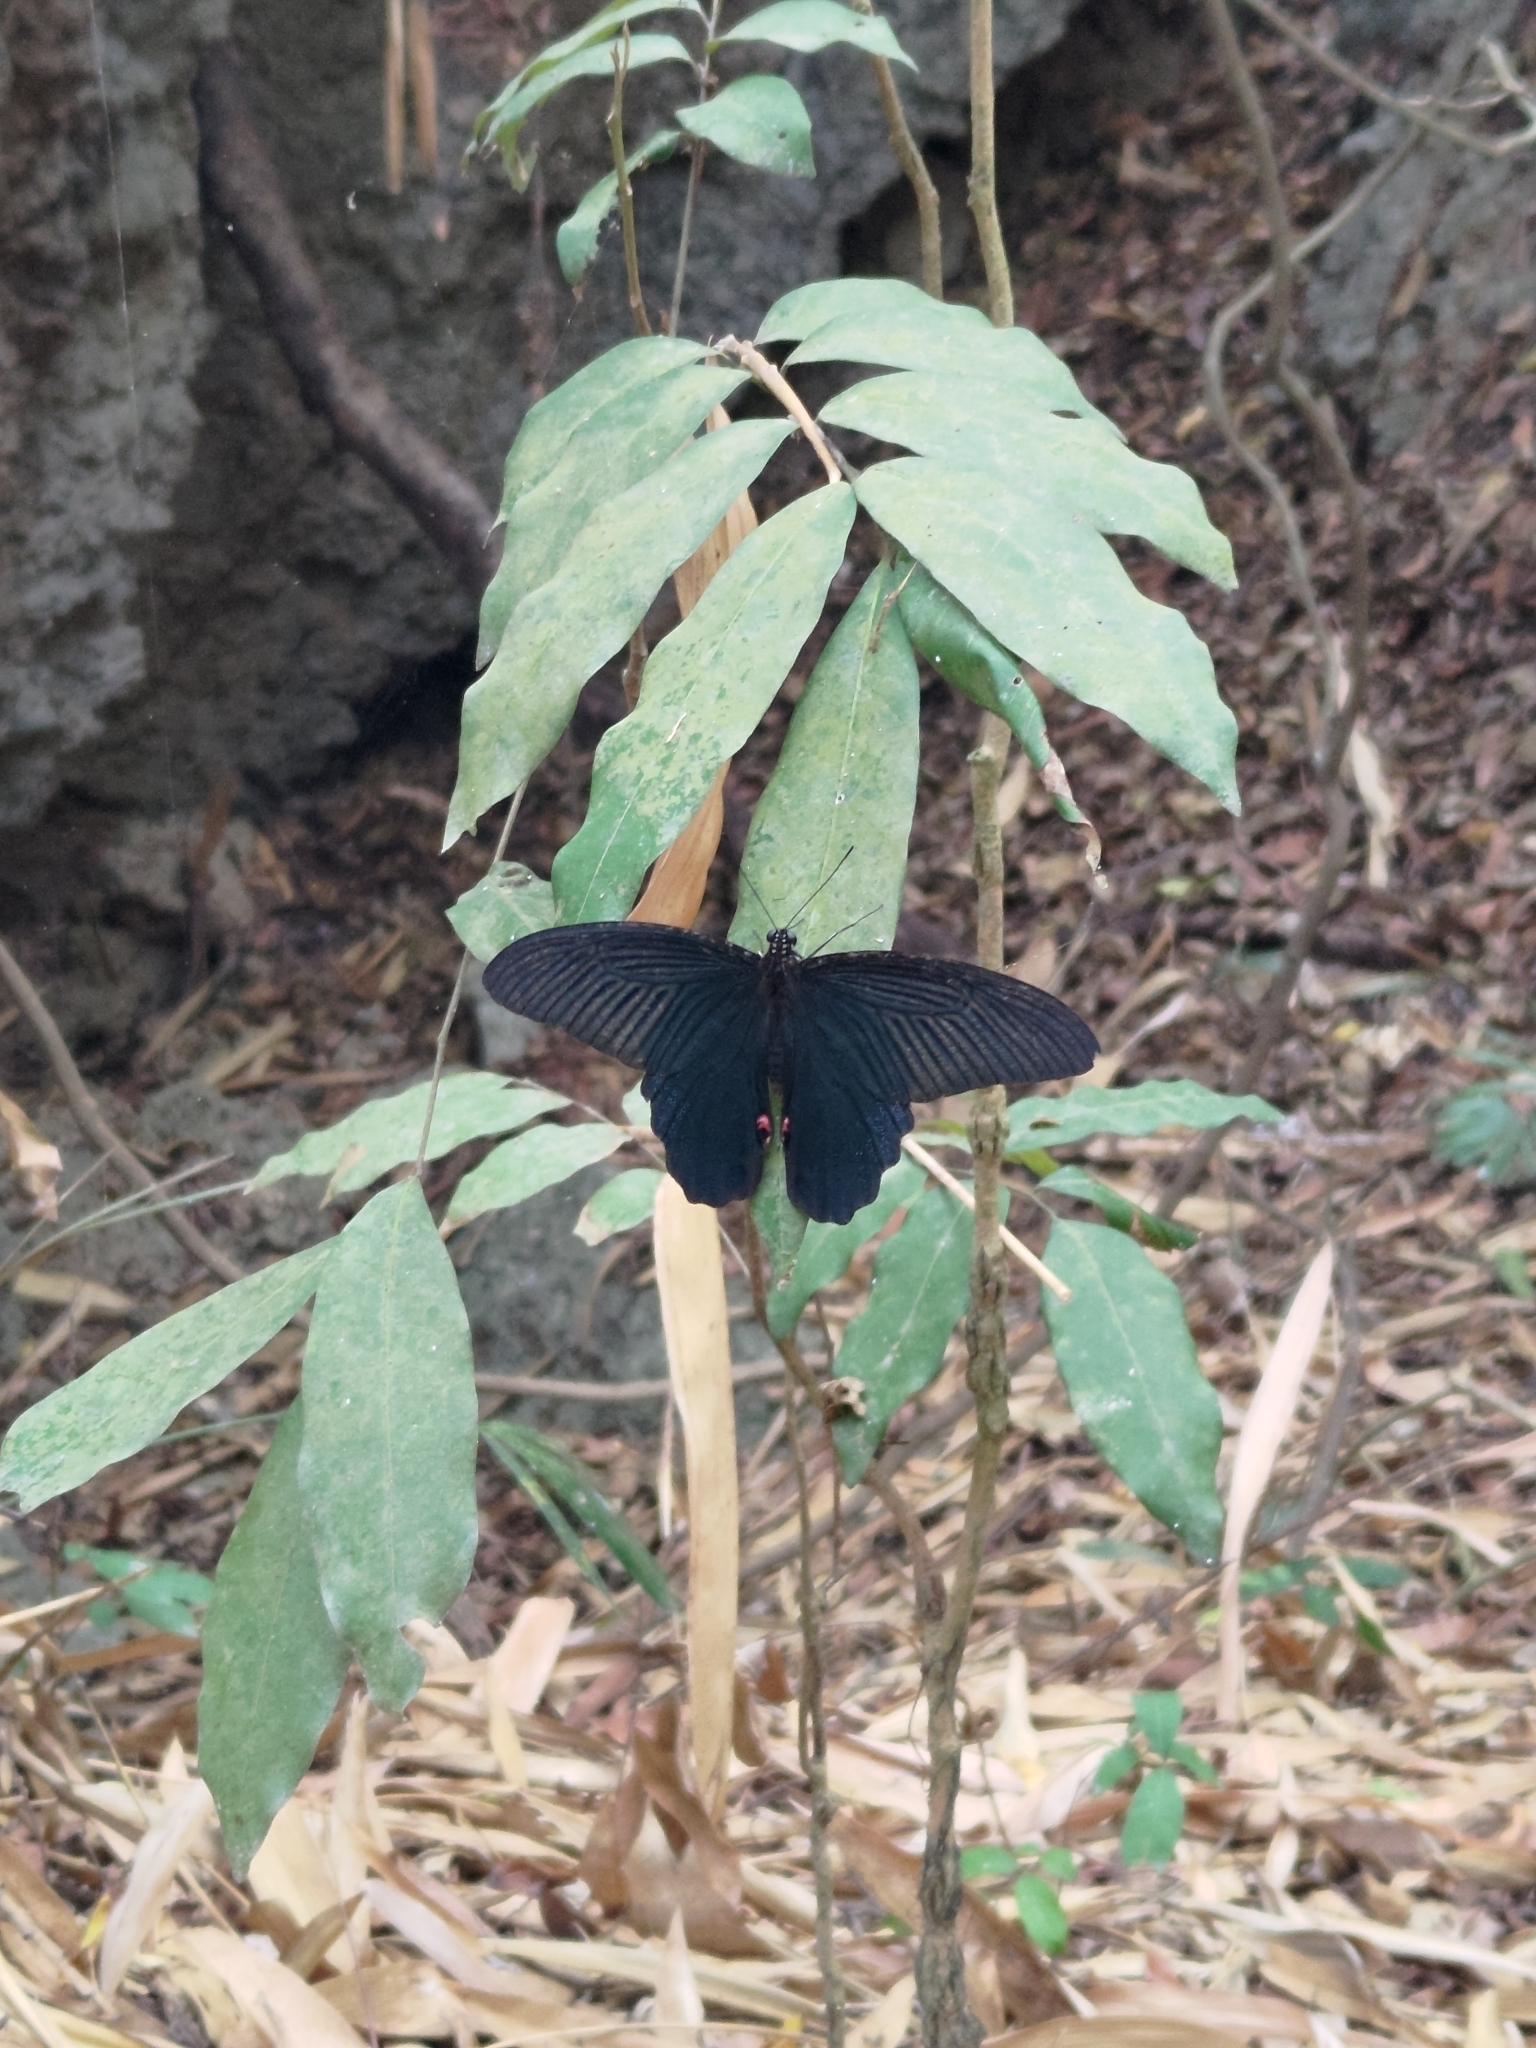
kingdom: Animalia
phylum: Arthropoda
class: Insecta
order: Lepidoptera
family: Papilionidae
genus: Papilio
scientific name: Papilio protenor
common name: Spangle
